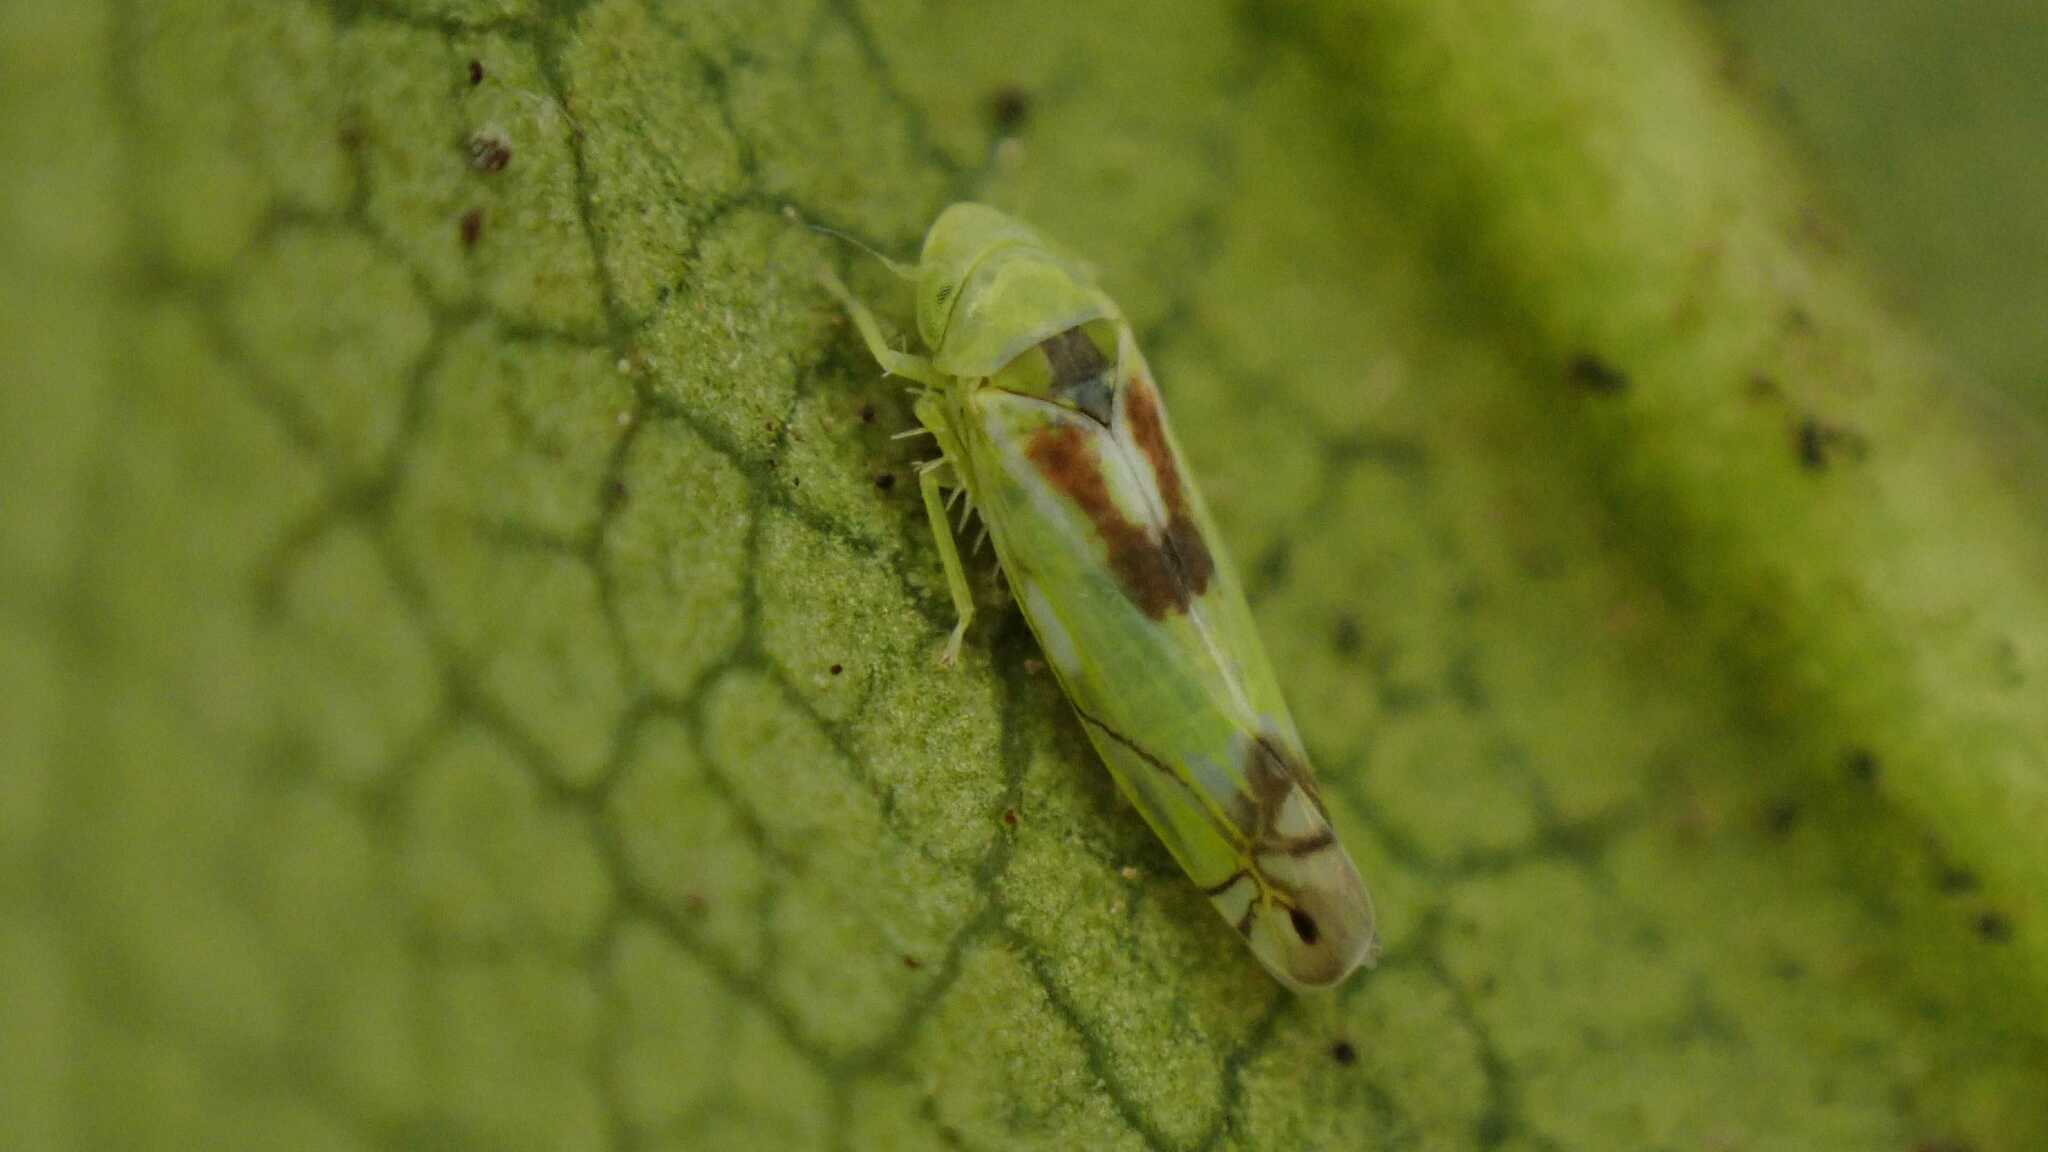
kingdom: Animalia
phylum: Arthropoda
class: Insecta
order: Hemiptera
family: Cicadellidae
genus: Zyginella
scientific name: Zyginella pulchra
